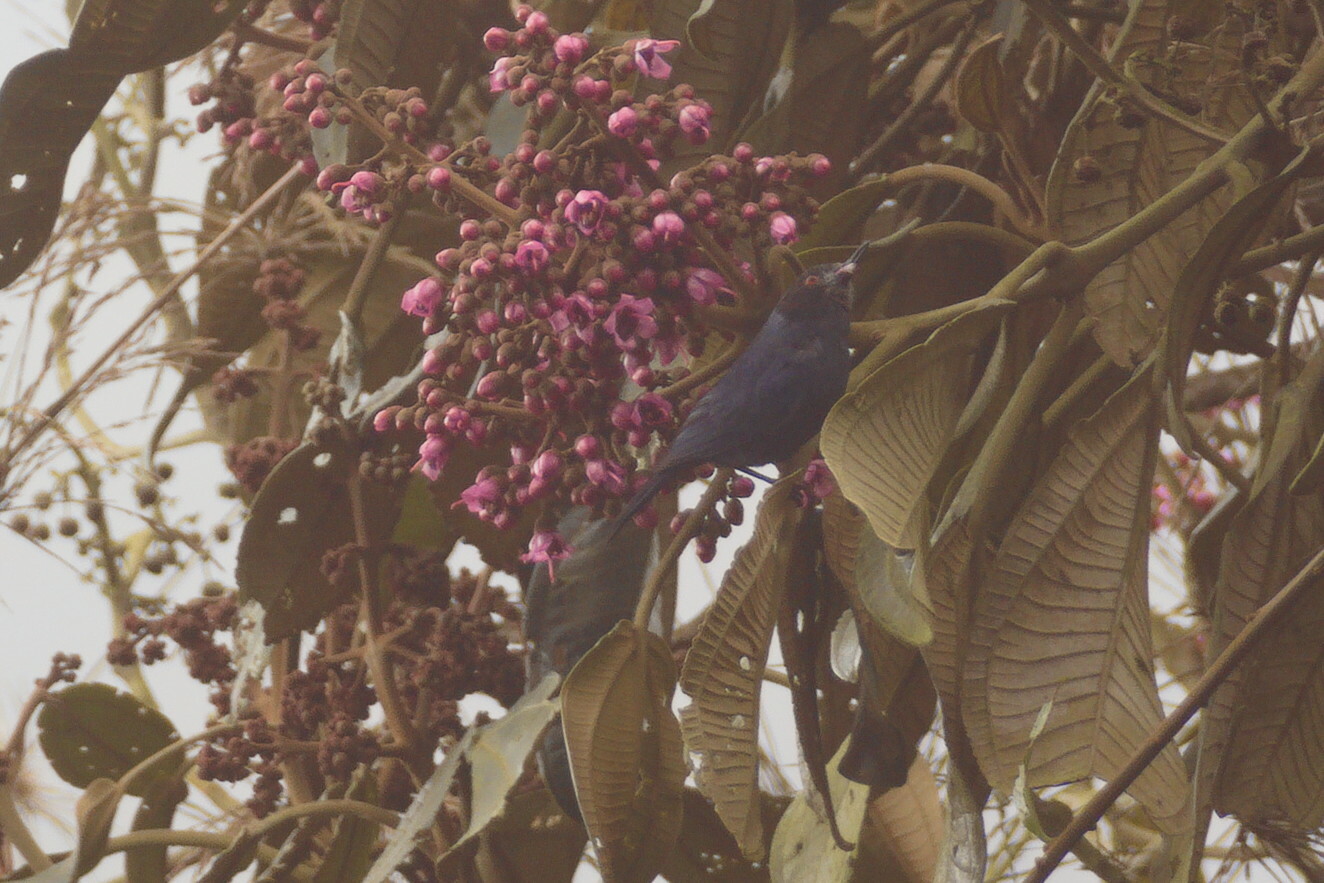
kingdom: Animalia
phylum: Chordata
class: Aves
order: Passeriformes
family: Thraupidae
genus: Diglossa
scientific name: Diglossa cyanea
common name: Masked flowerpiercer
